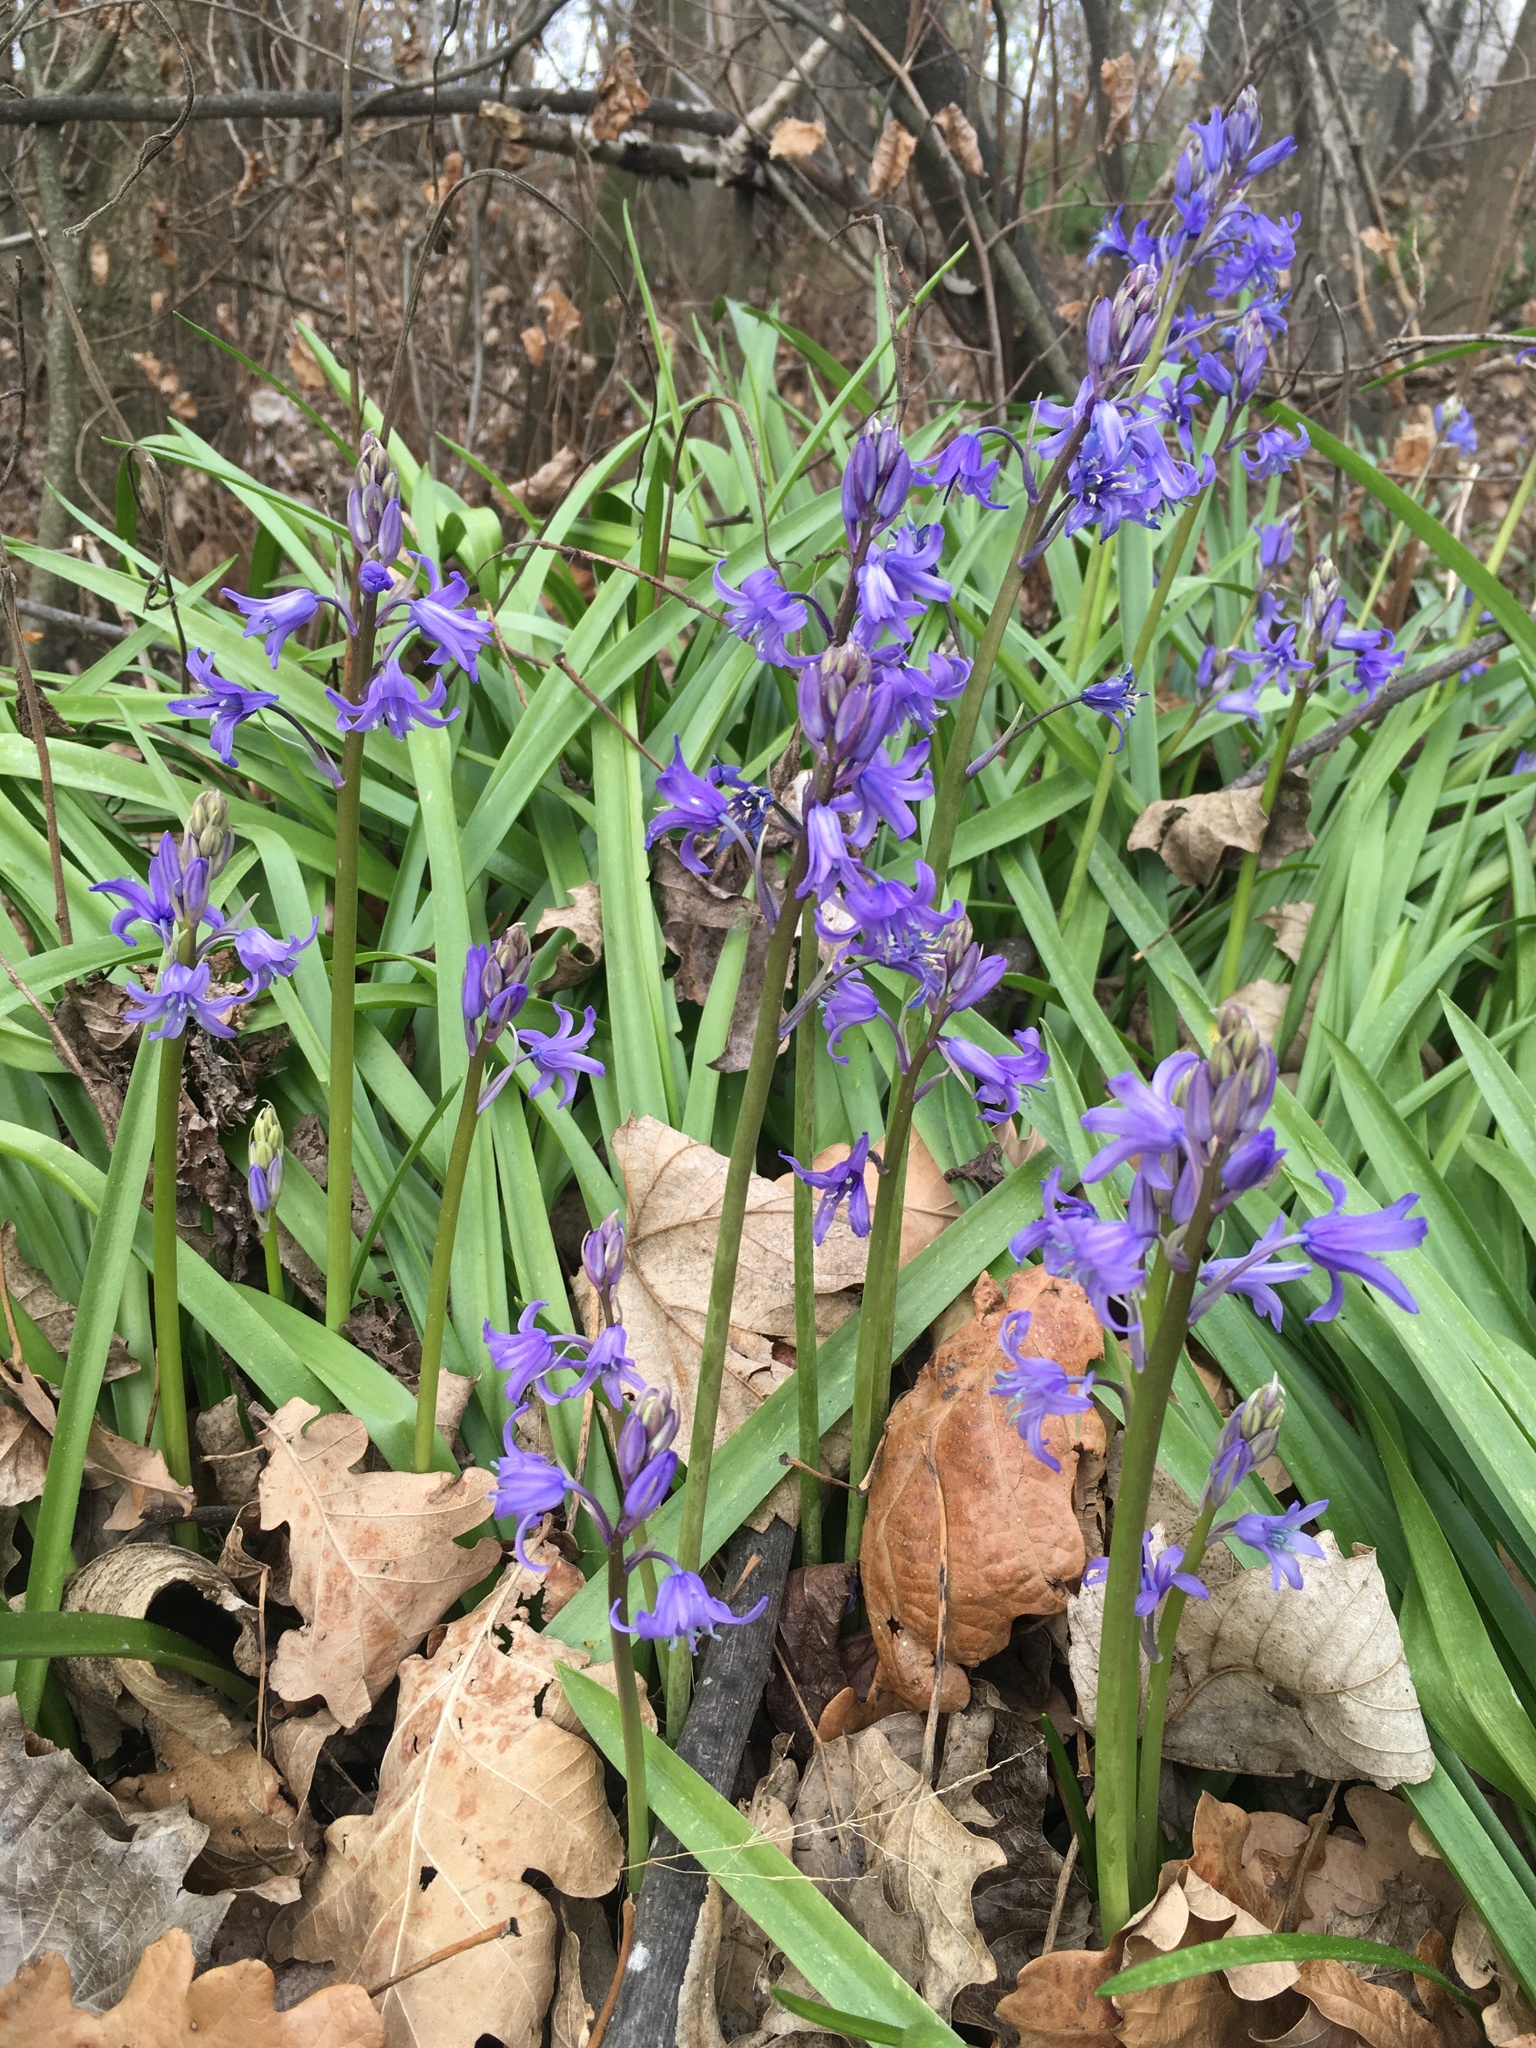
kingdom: Plantae
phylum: Tracheophyta
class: Liliopsida
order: Asparagales
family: Asparagaceae
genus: Hyacinthoides
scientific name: Hyacinthoides massartiana
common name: Hyacinthoides
